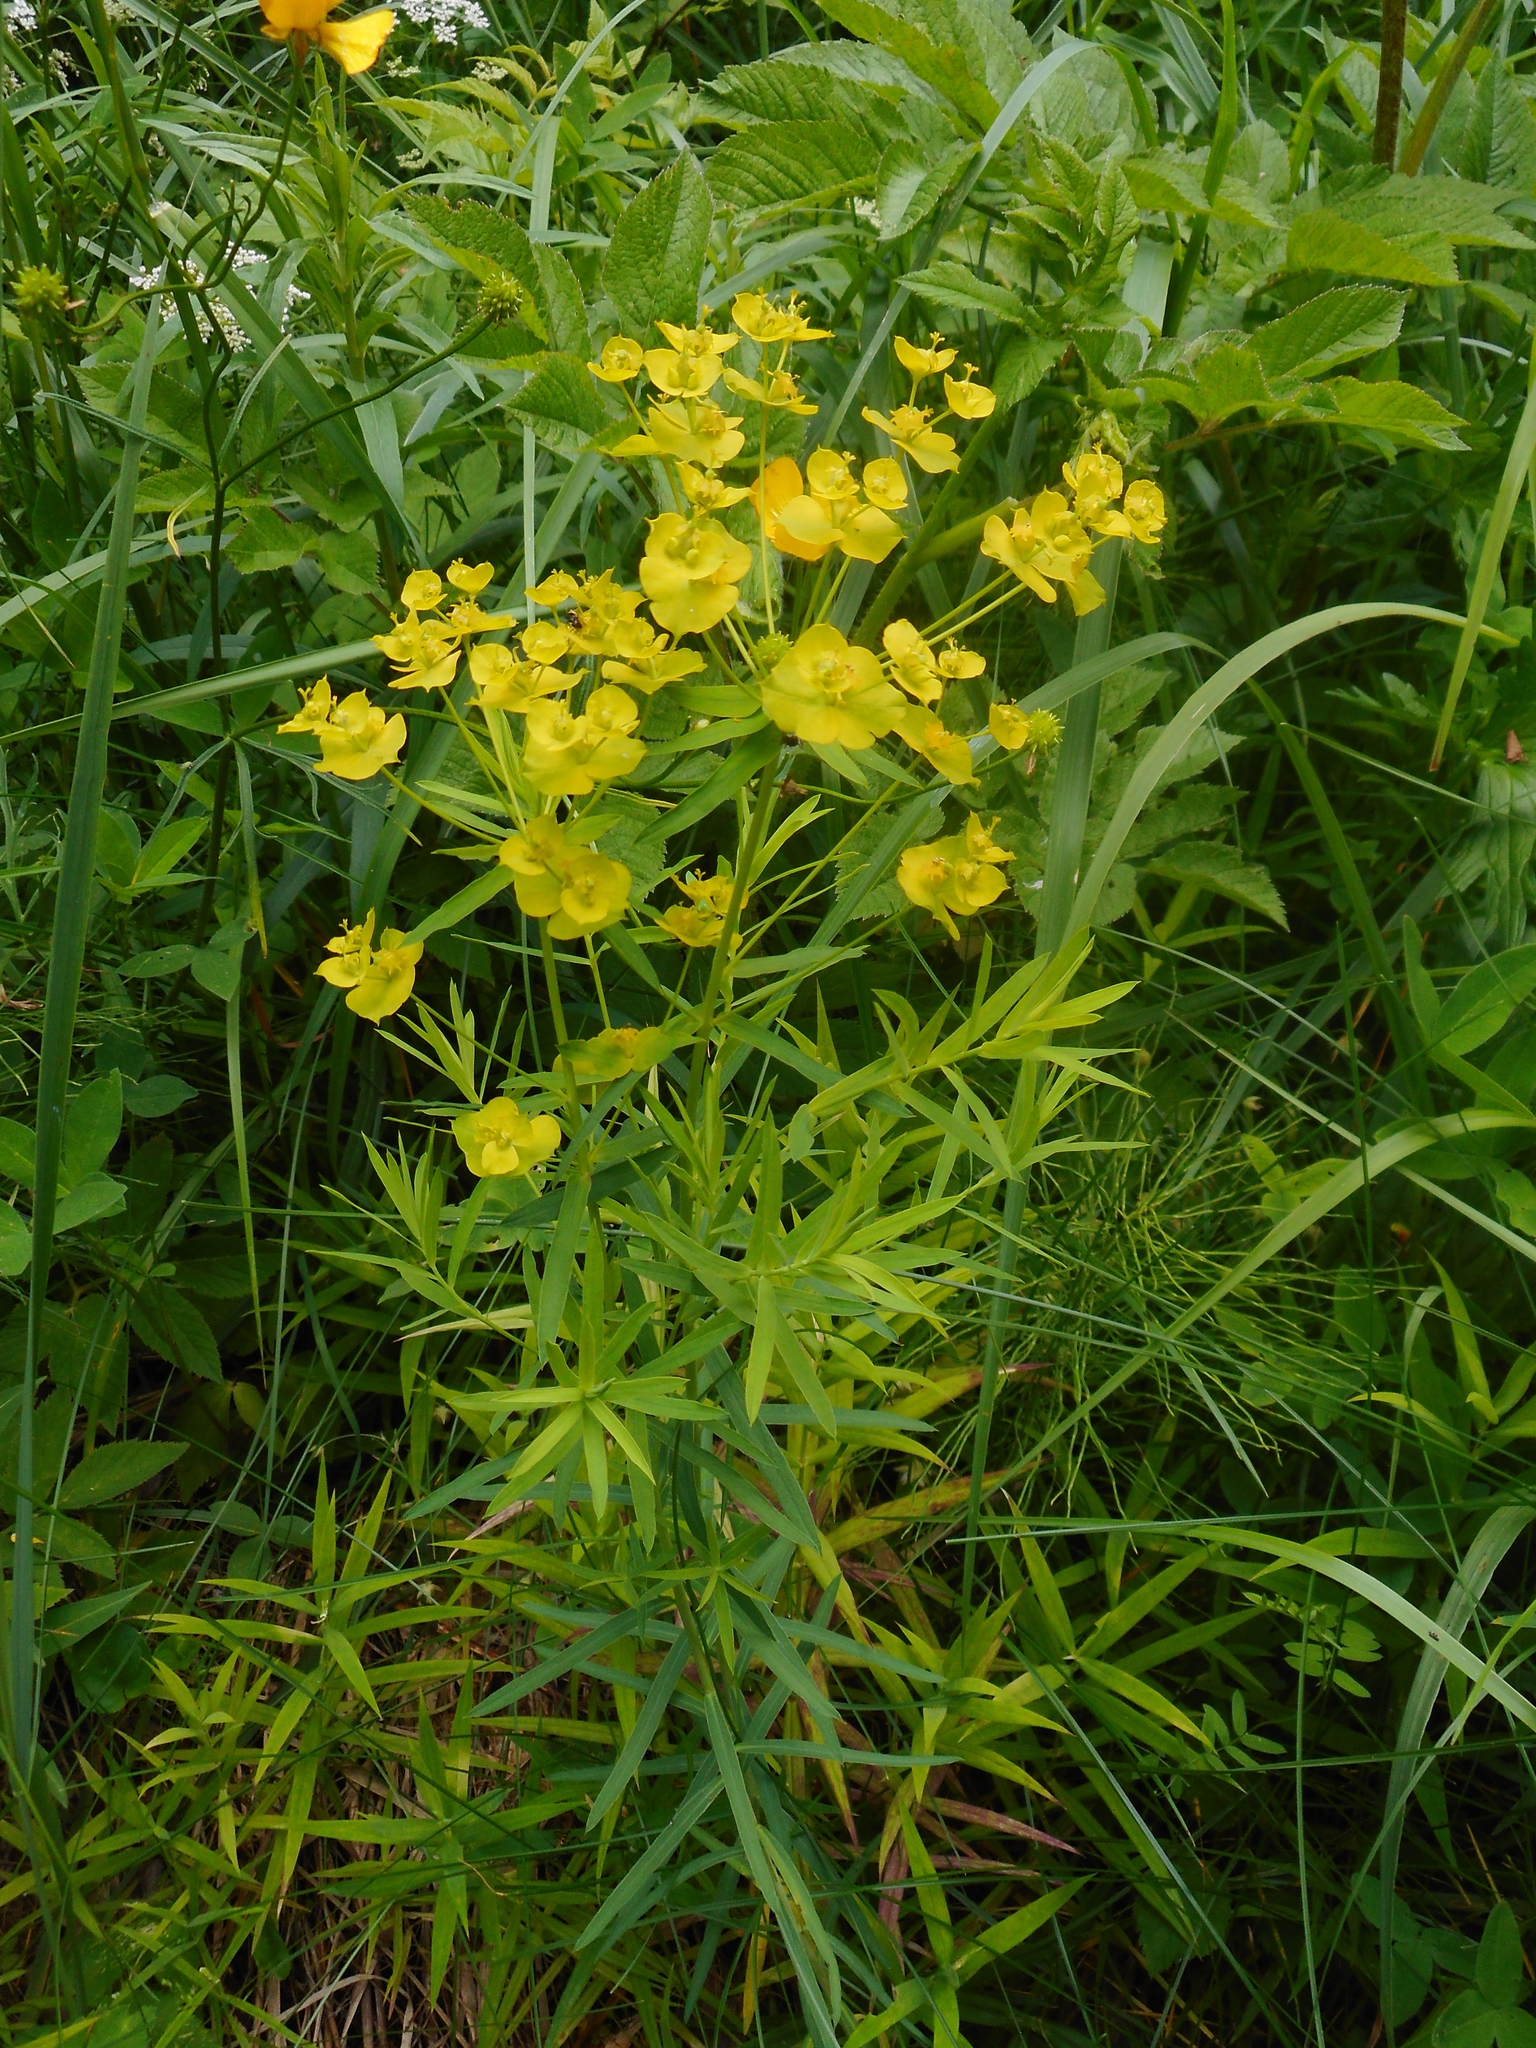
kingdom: Plantae
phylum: Tracheophyta
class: Magnoliopsida
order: Malpighiales
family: Euphorbiaceae
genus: Euphorbia
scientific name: Euphorbia virgata
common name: Leafy spurge
